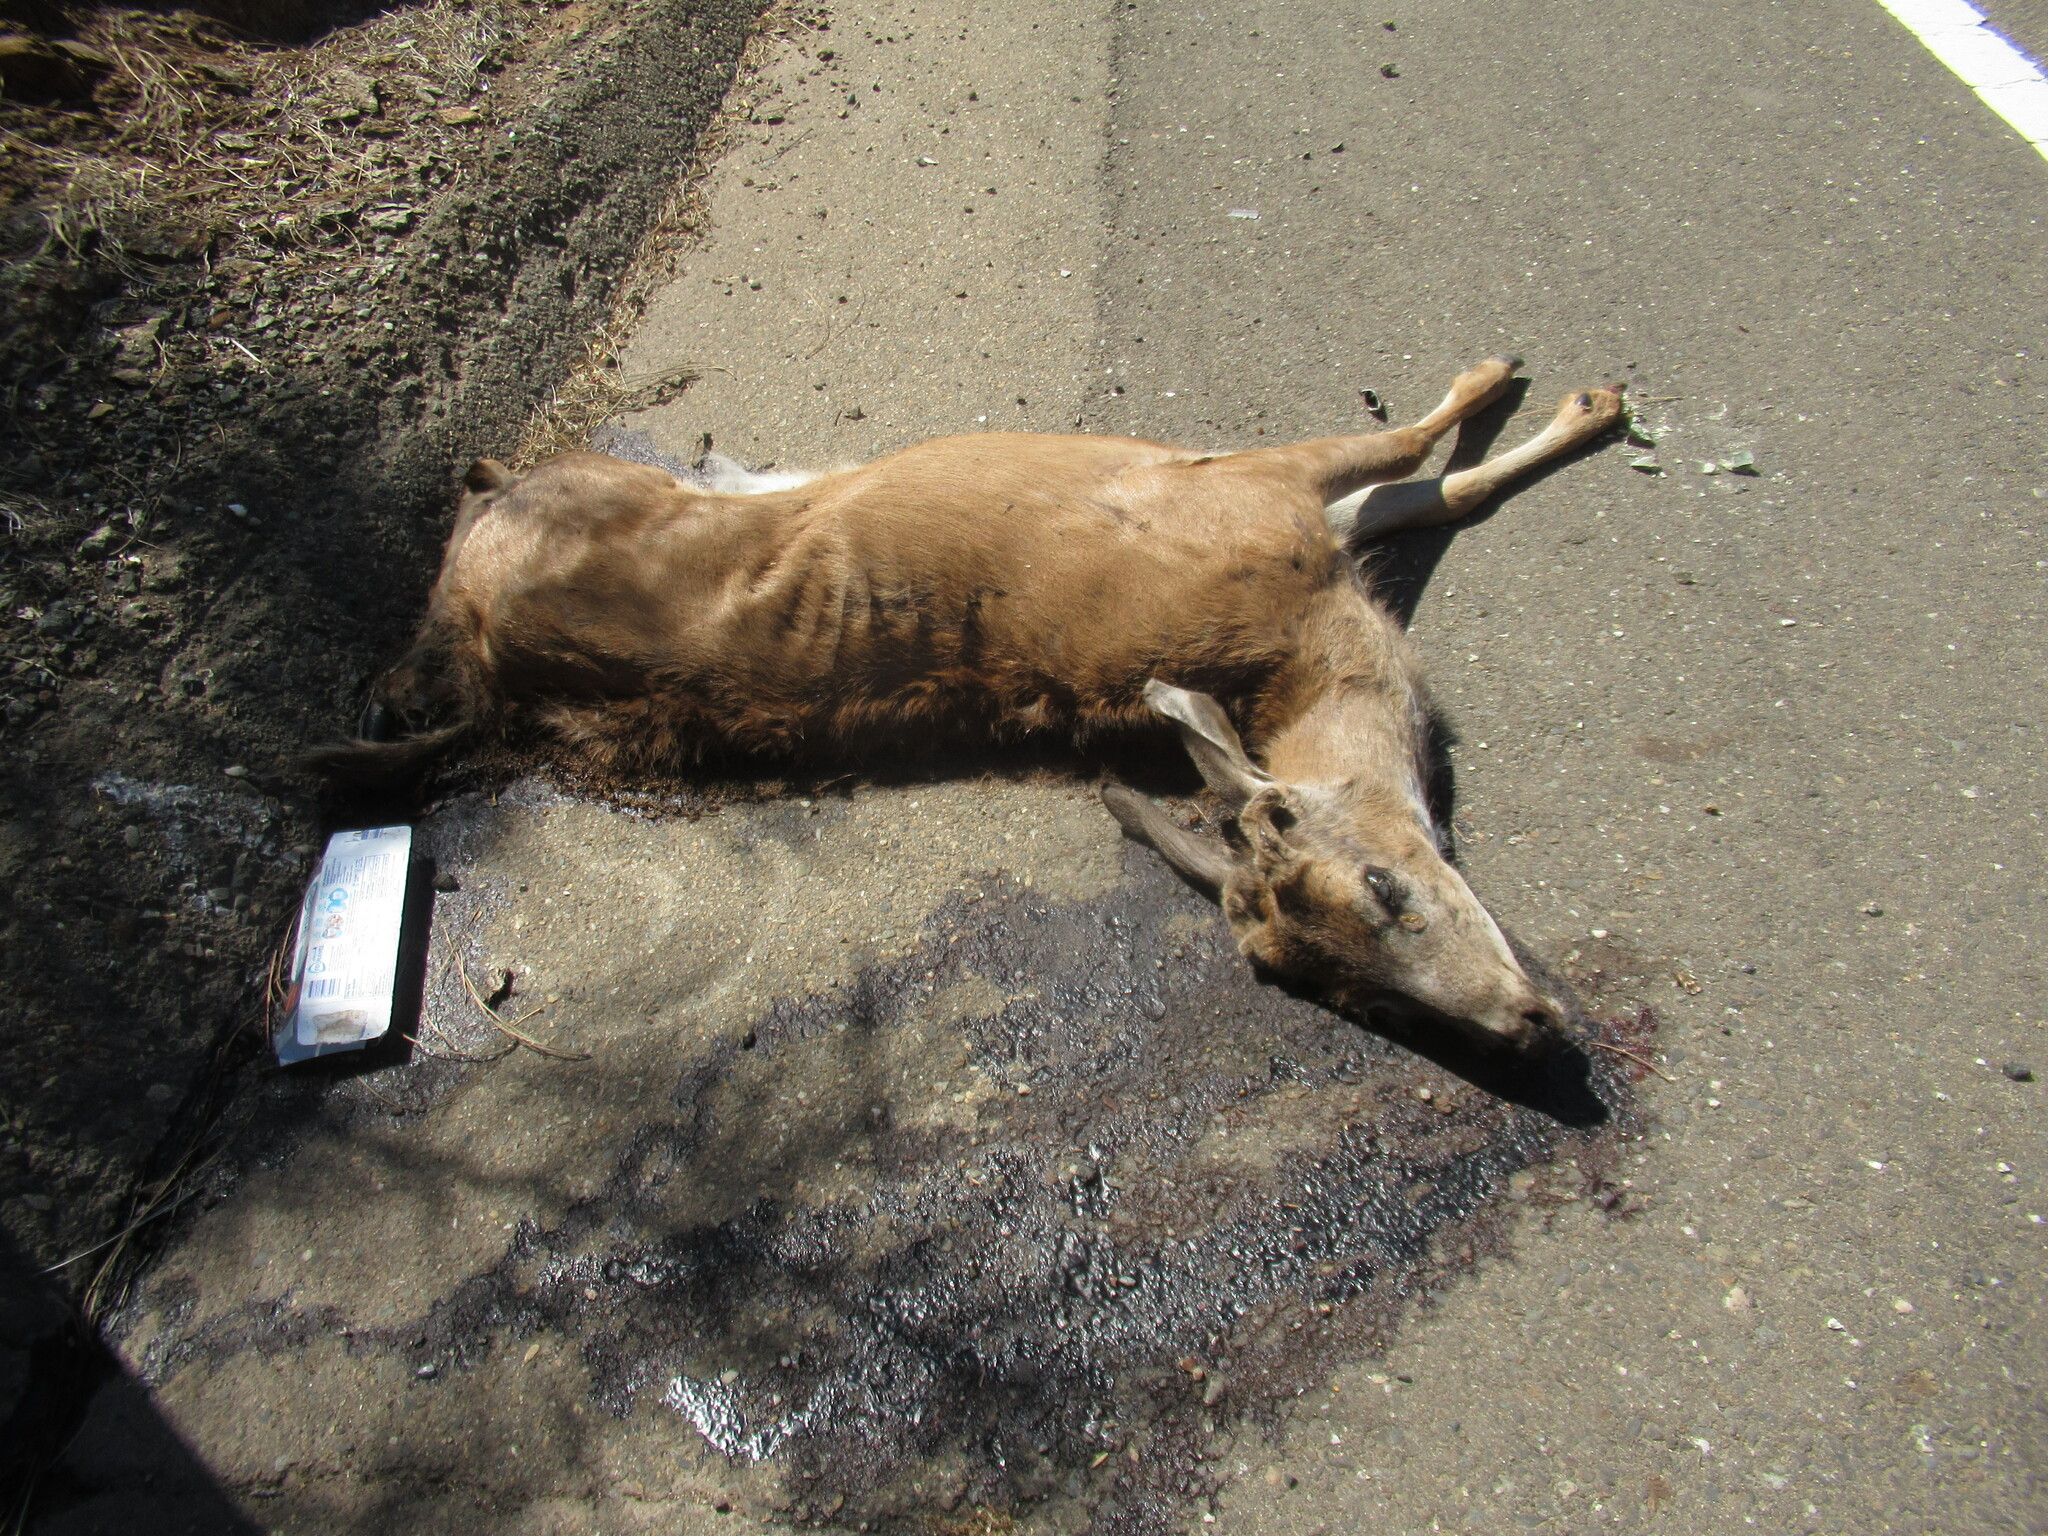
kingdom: Animalia
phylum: Chordata
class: Mammalia
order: Artiodactyla
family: Cervidae
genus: Odocoileus
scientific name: Odocoileus hemionus
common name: Mule deer
